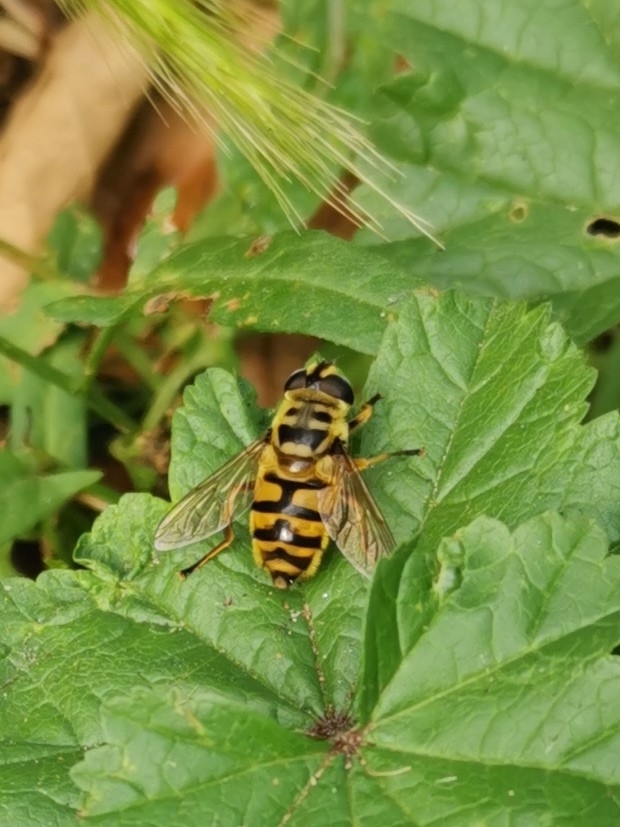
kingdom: Animalia
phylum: Arthropoda
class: Insecta
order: Diptera
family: Syrphidae
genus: Myathropa
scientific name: Myathropa florea
